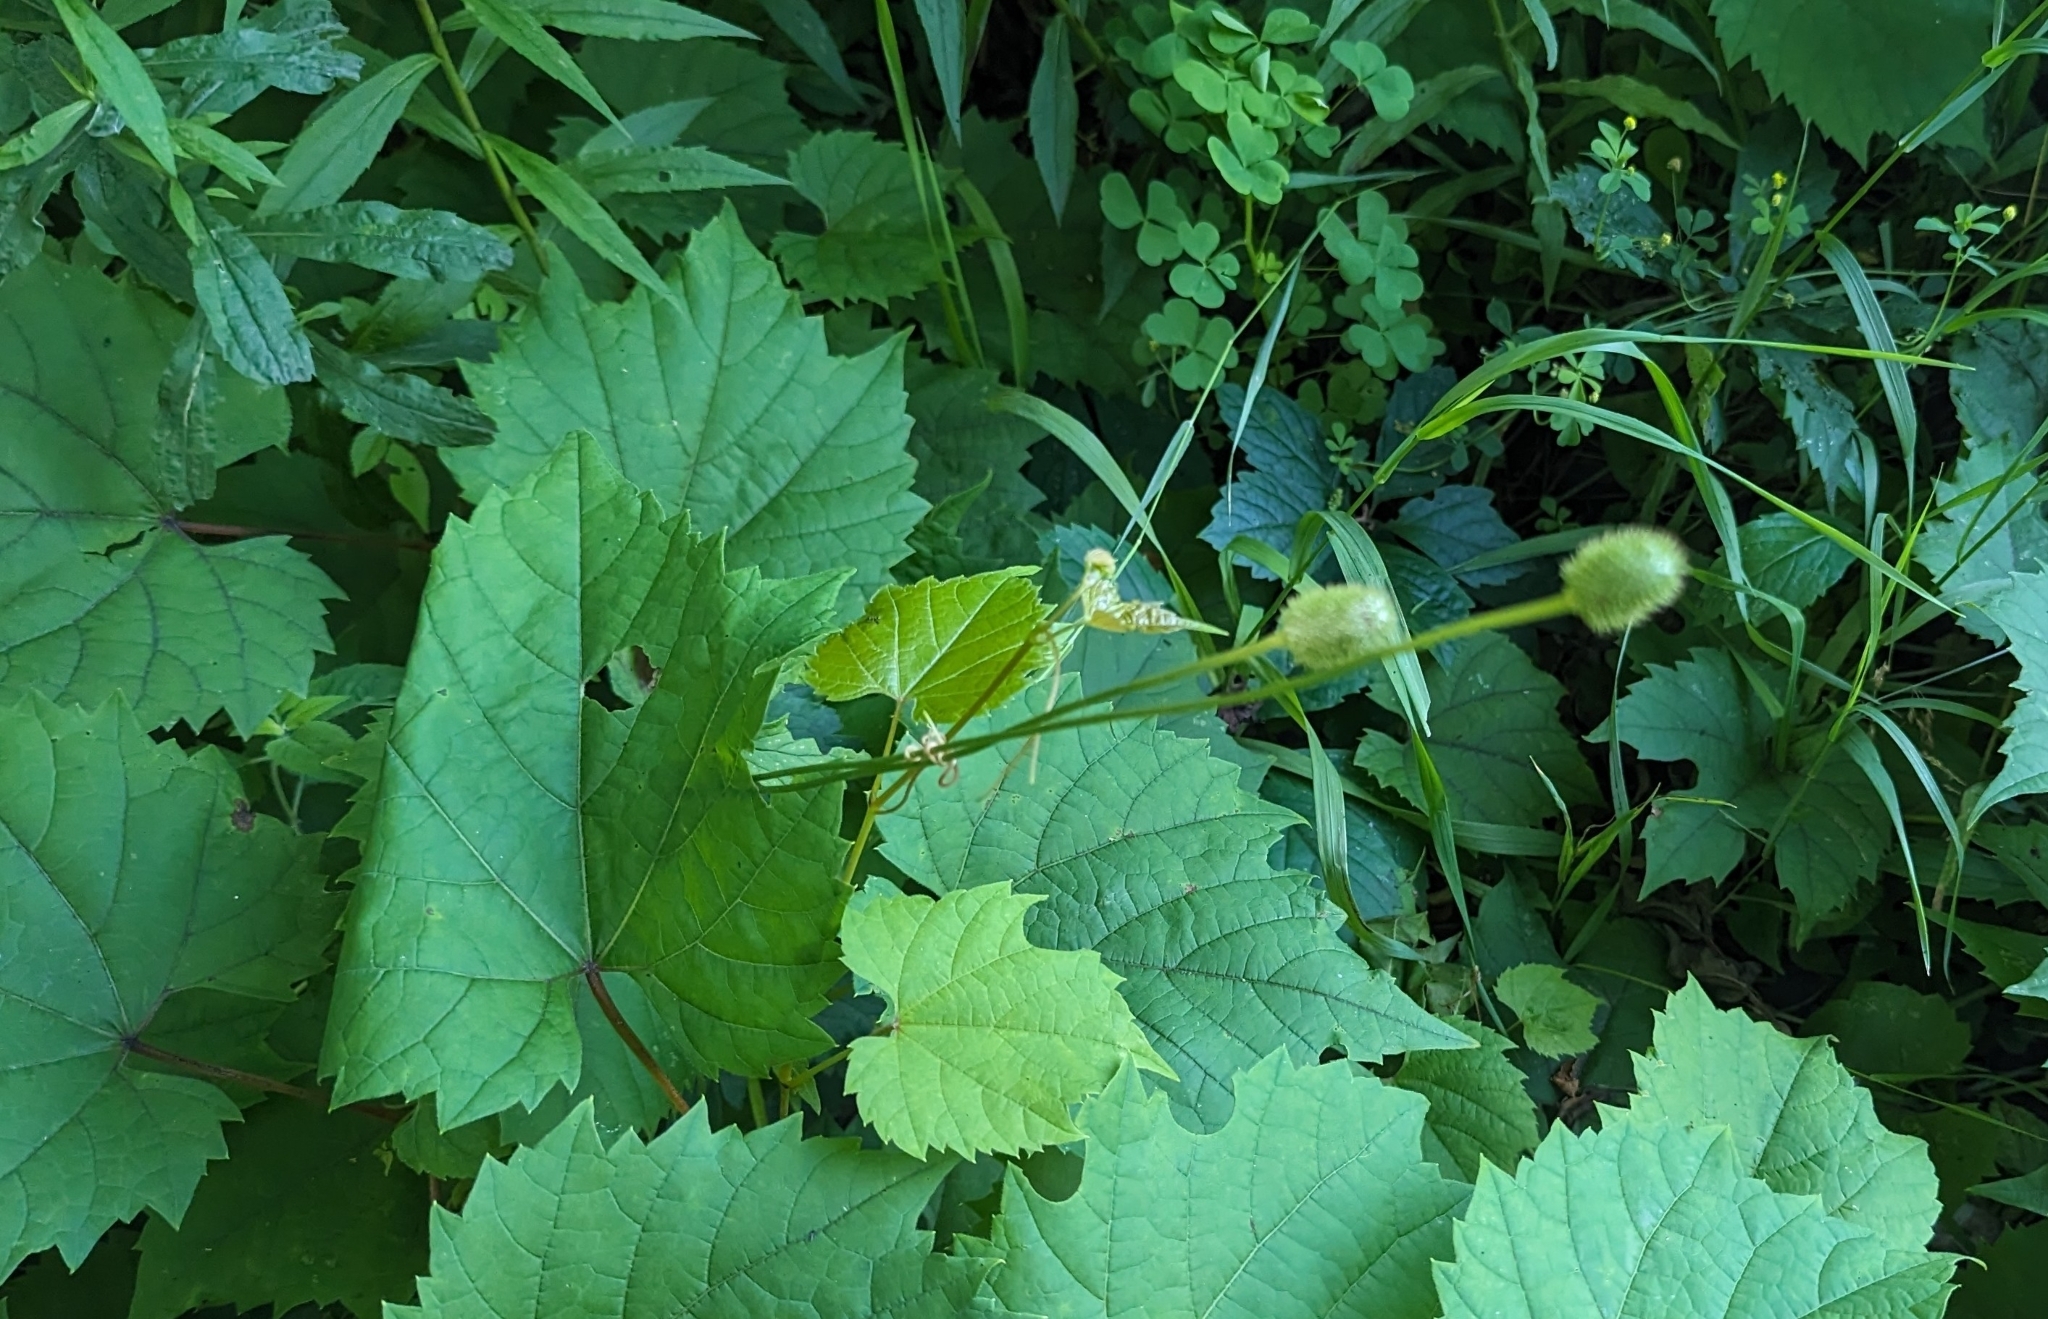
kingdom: Plantae
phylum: Tracheophyta
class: Magnoliopsida
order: Ranunculales
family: Ranunculaceae
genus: Anemone
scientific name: Anemone virginiana
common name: Tall anemone
